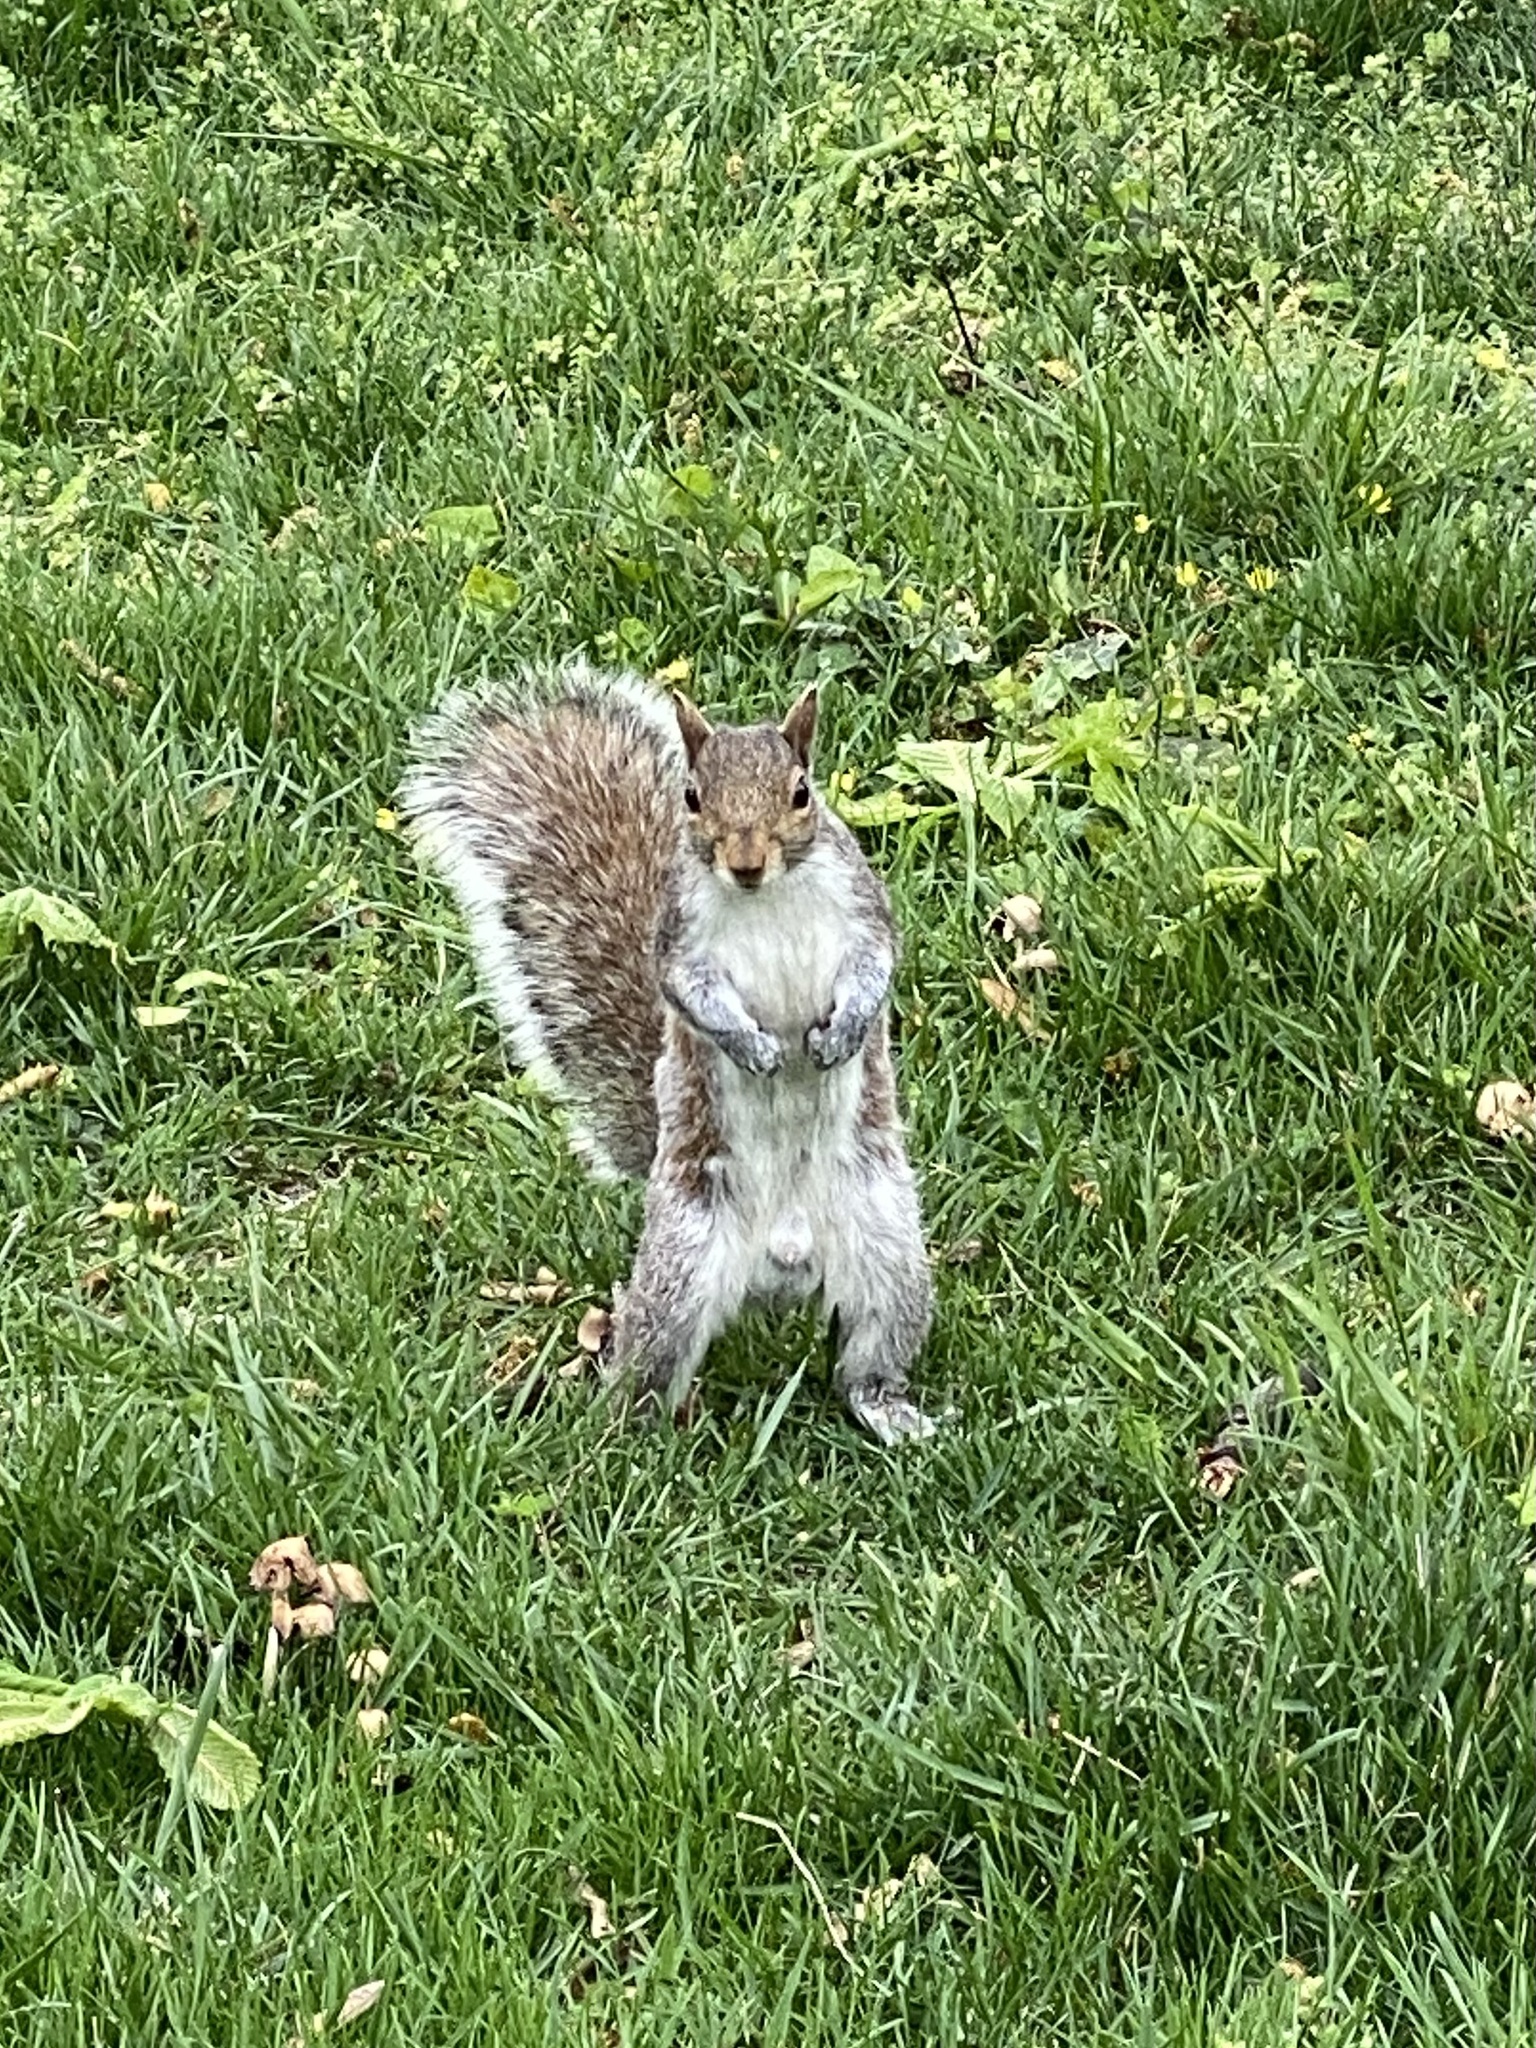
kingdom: Animalia
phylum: Chordata
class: Mammalia
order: Rodentia
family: Sciuridae
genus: Sciurus
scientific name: Sciurus carolinensis
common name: Eastern gray squirrel
